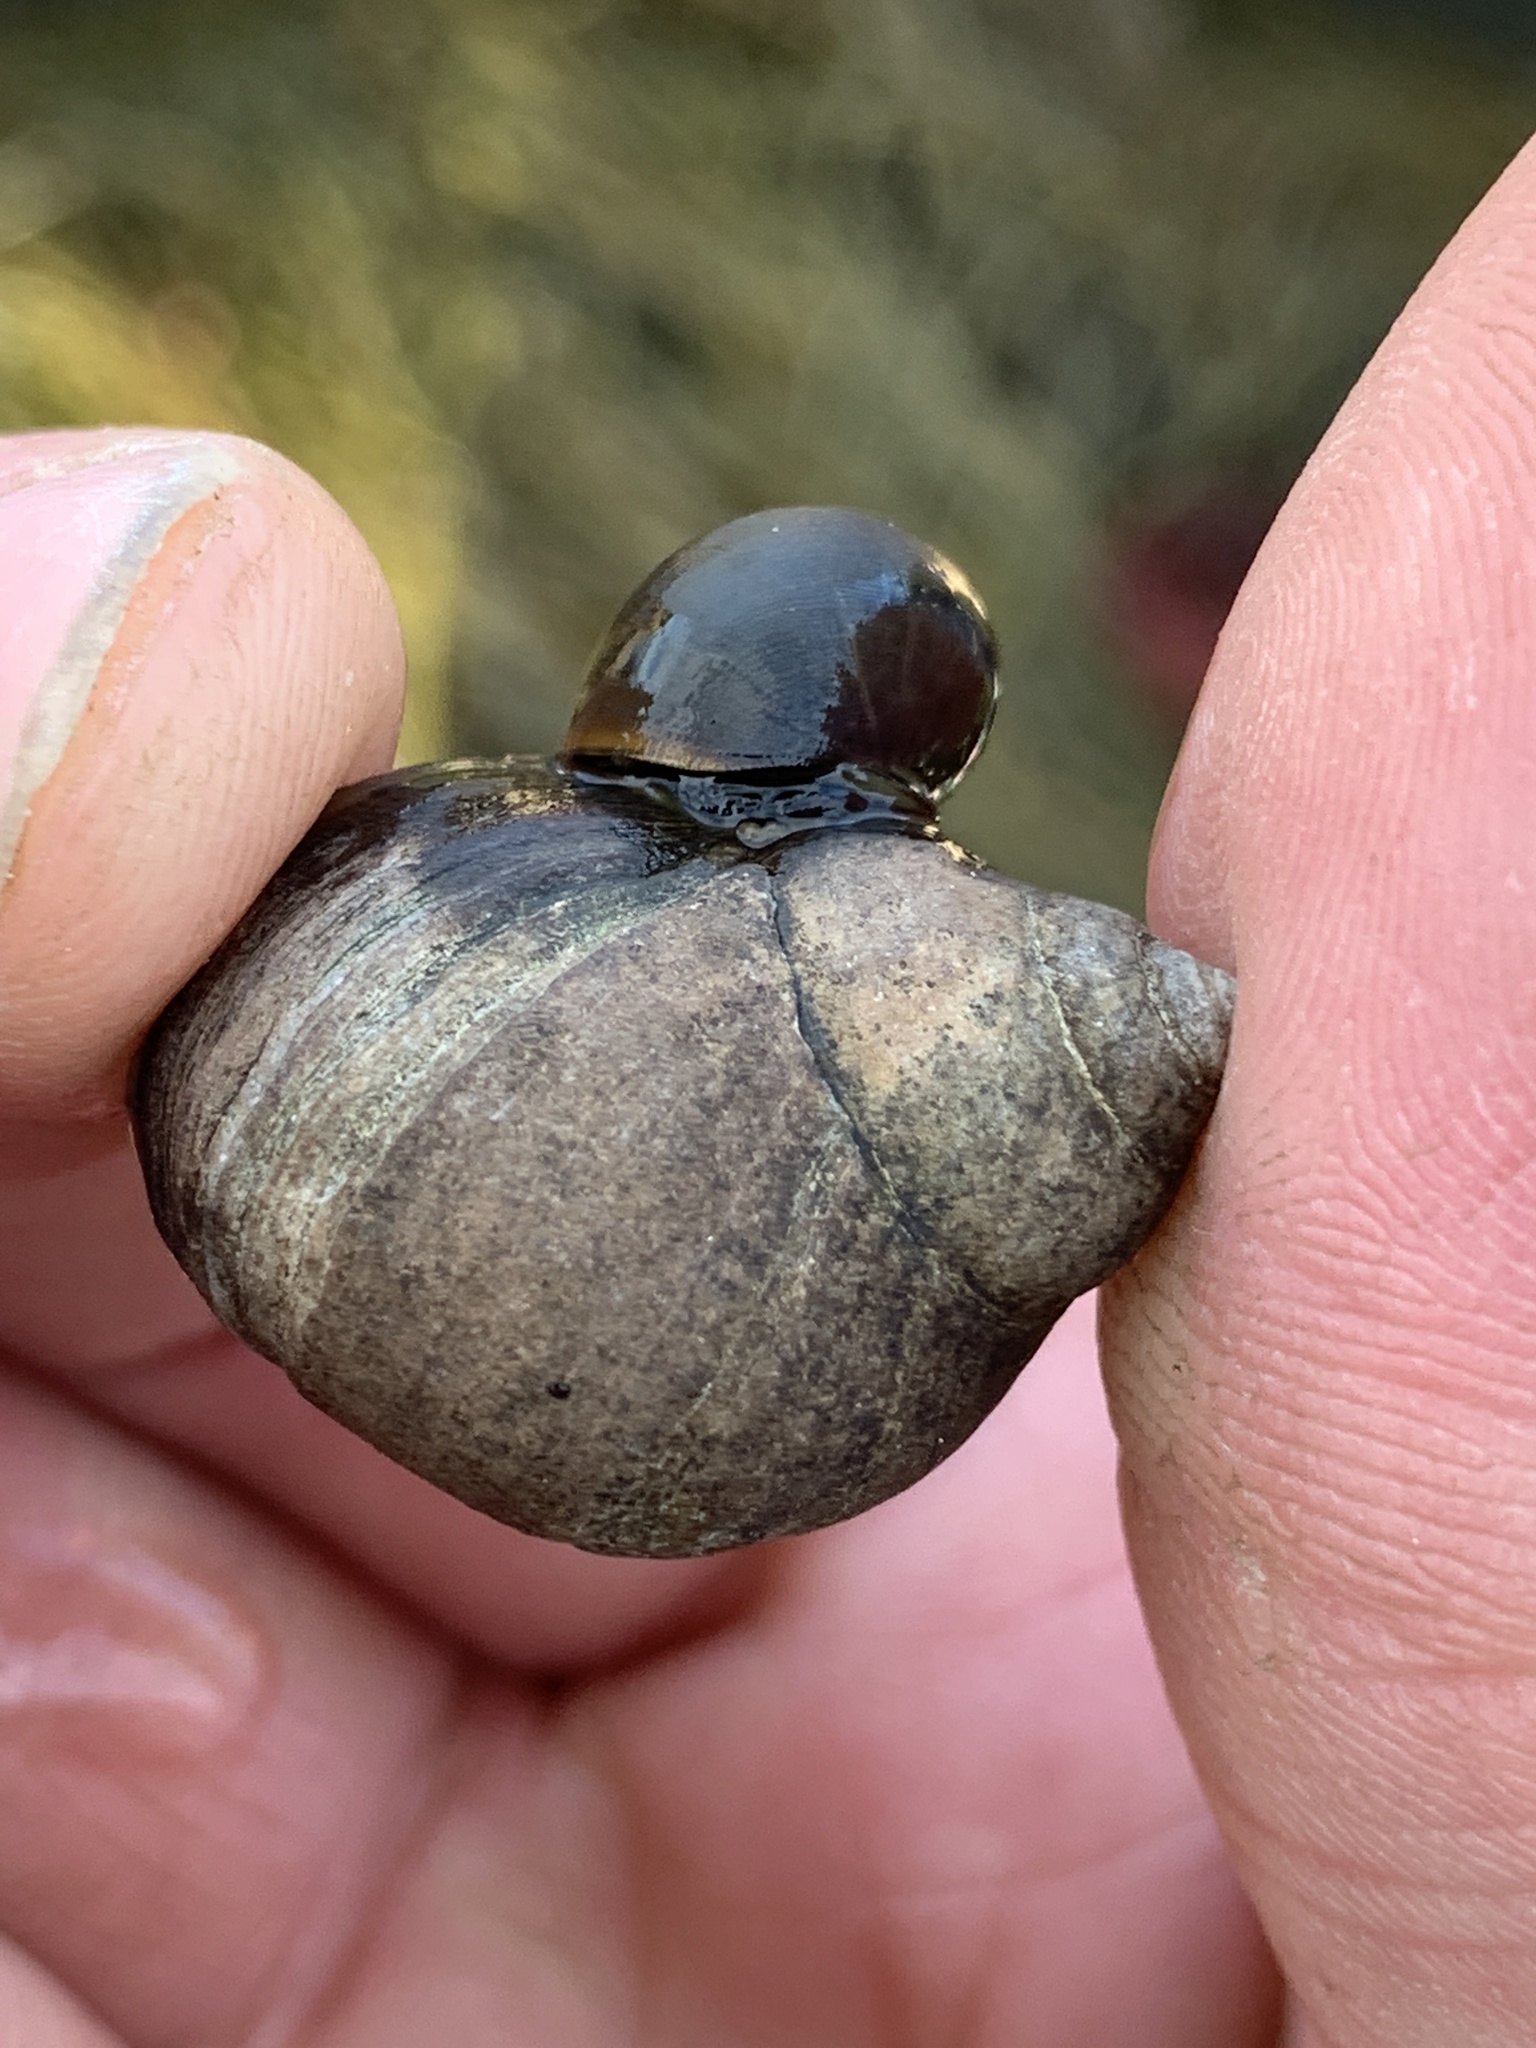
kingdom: Animalia
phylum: Mollusca
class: Gastropoda
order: Littorinimorpha
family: Littorinidae
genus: Littorina
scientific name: Littorina obtusata
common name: Flat periwinkle
